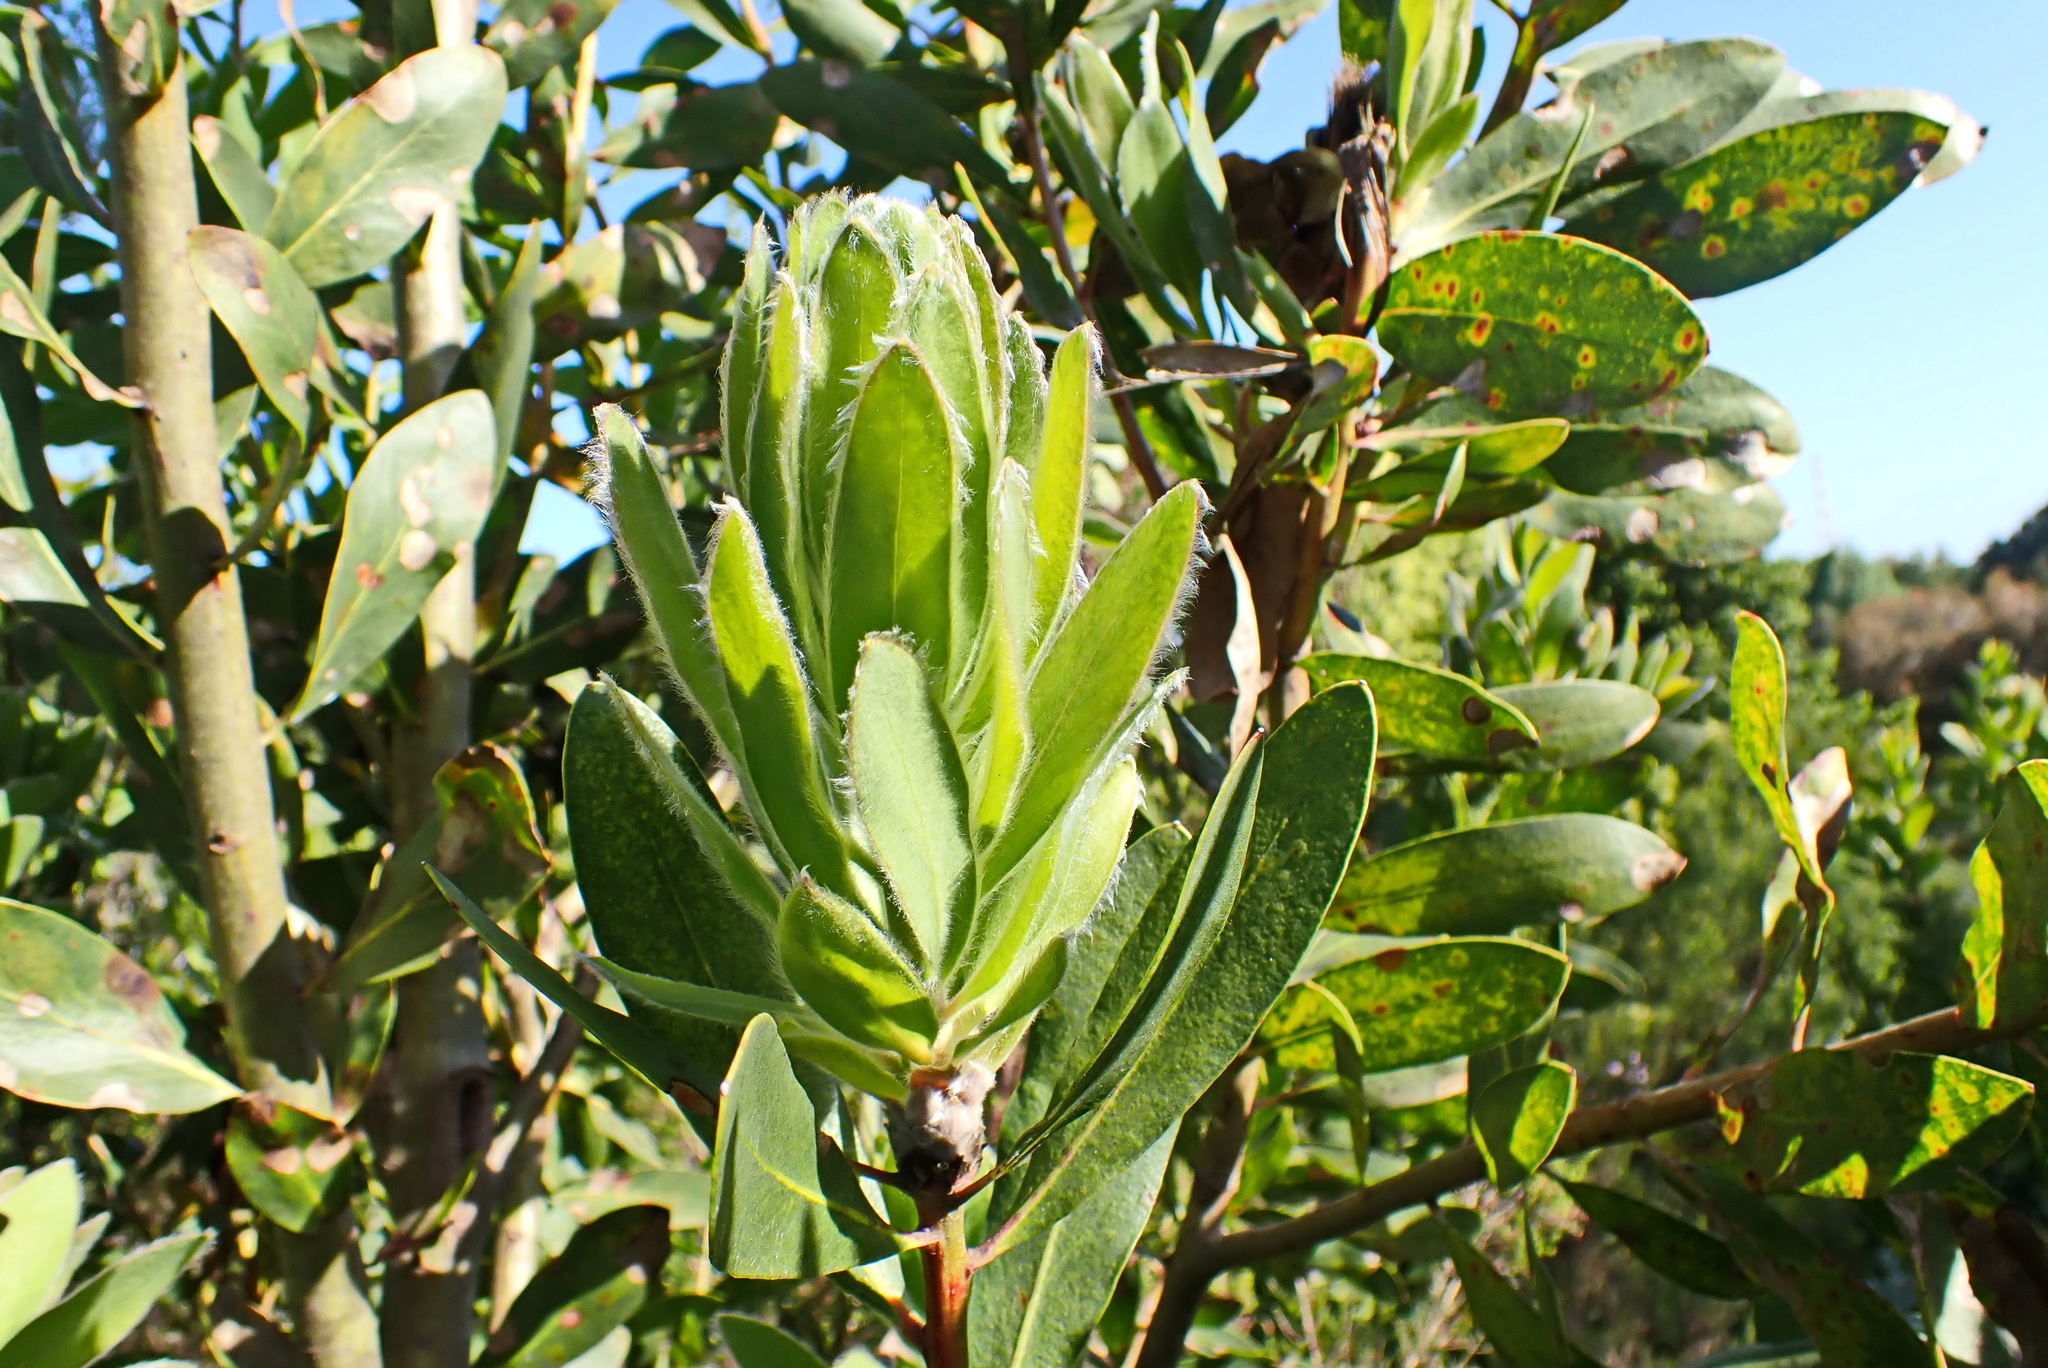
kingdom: Plantae
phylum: Tracheophyta
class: Magnoliopsida
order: Proteales
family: Proteaceae
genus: Protea
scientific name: Protea mundii
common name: Forest sugarbush
